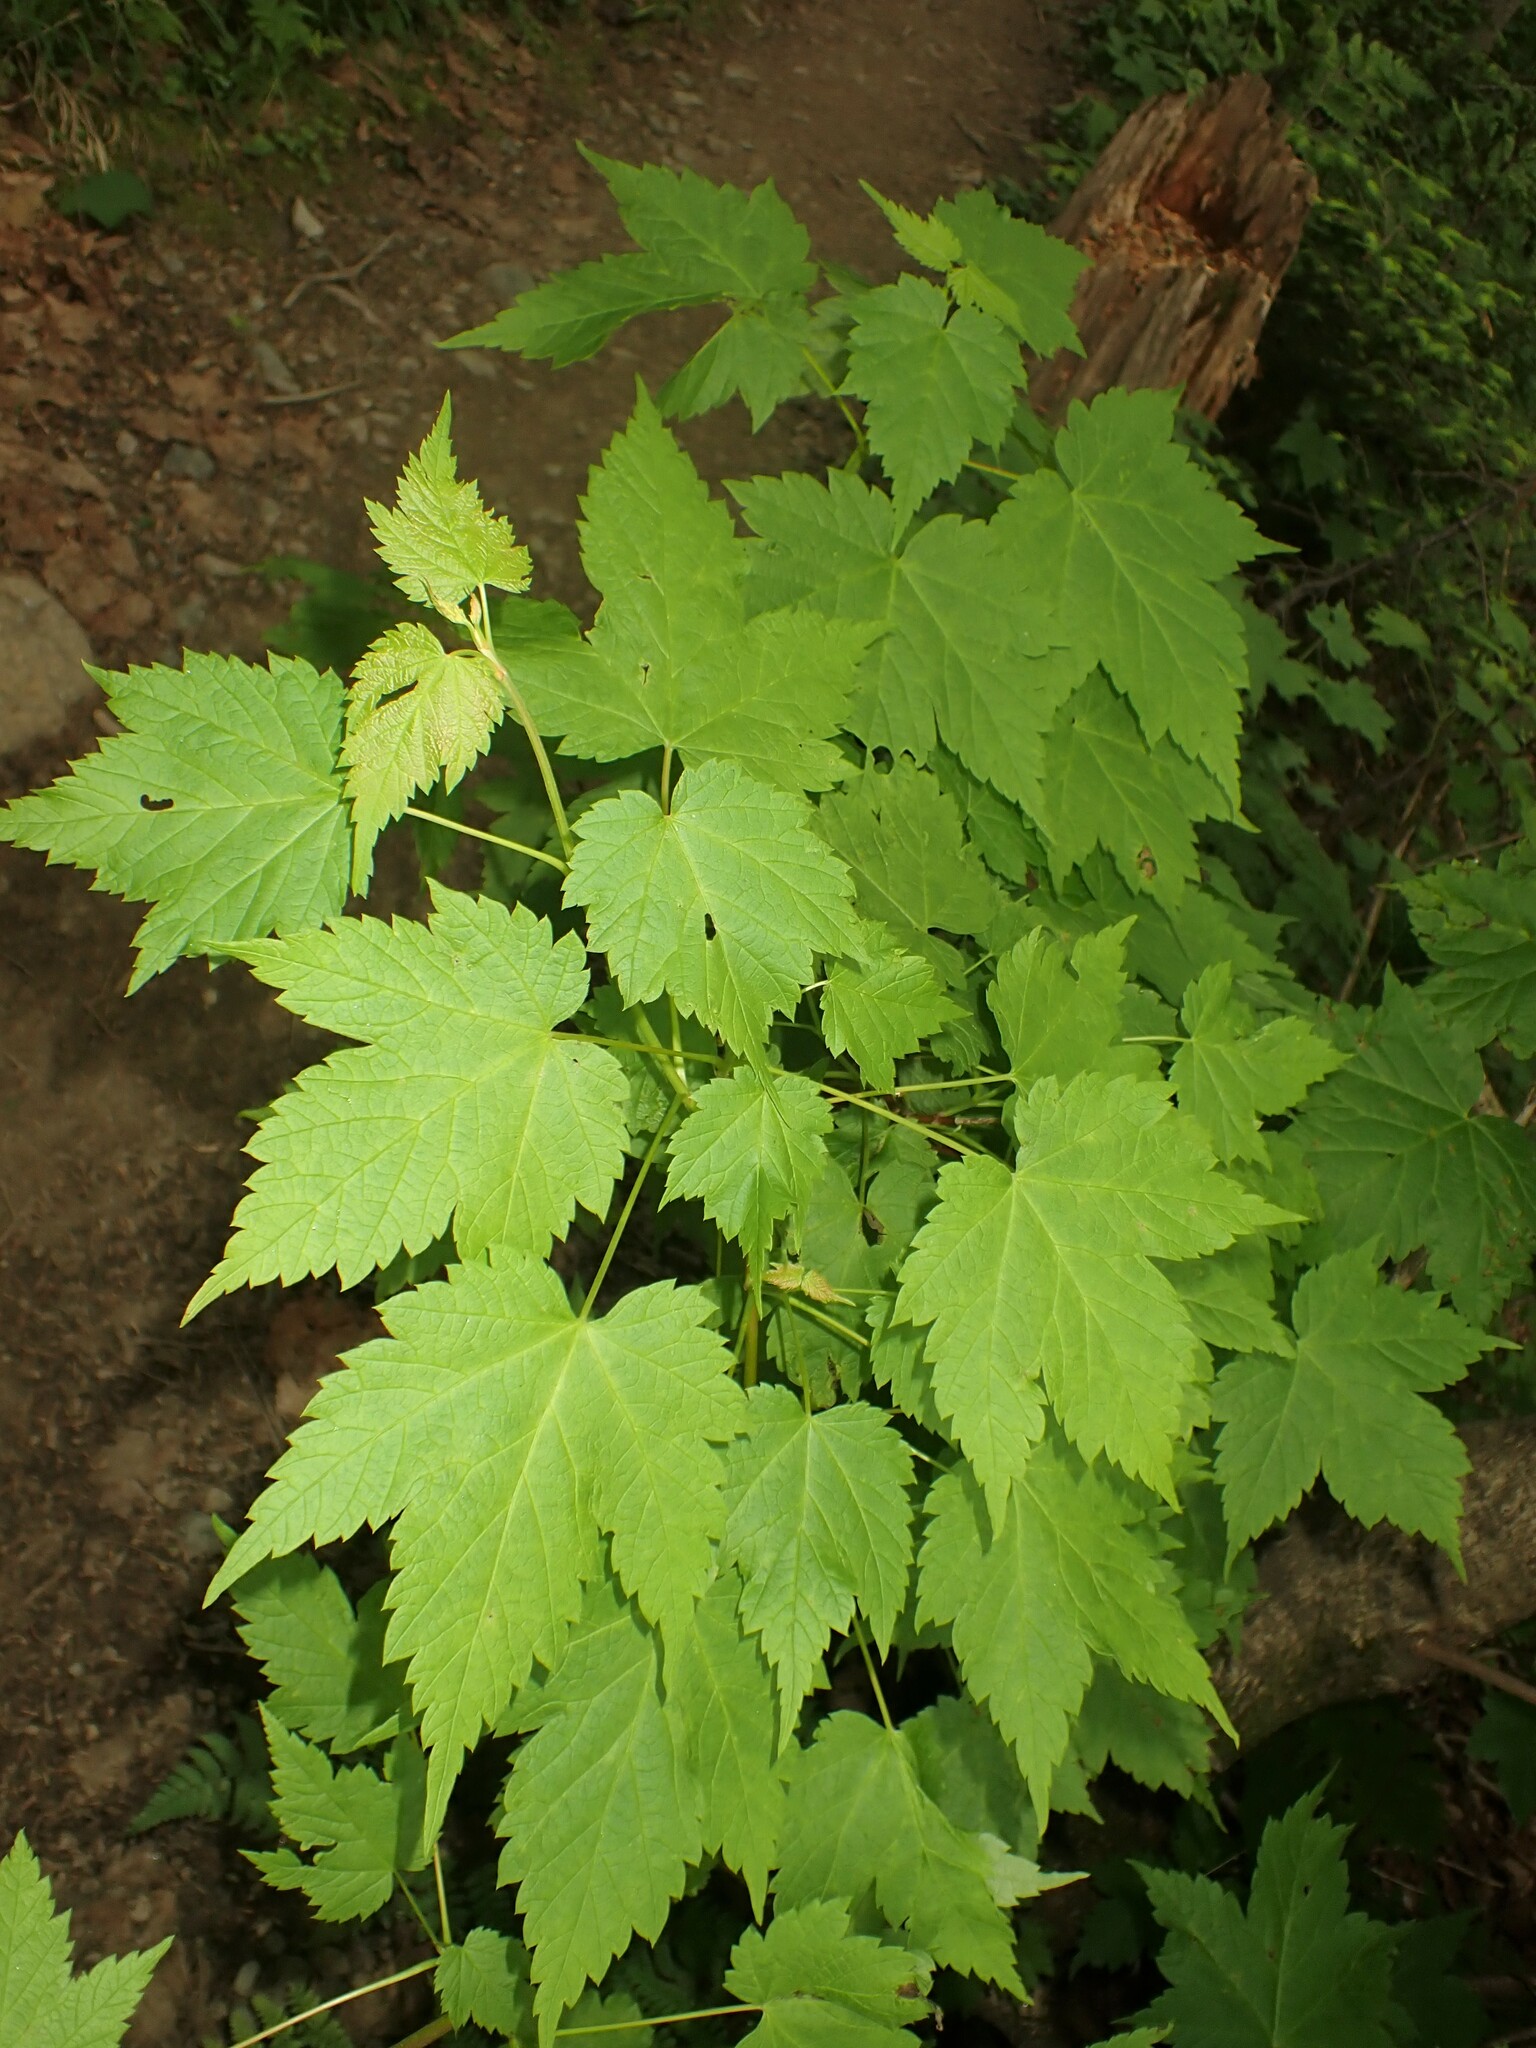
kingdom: Plantae
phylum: Tracheophyta
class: Magnoliopsida
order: Sapindales
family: Sapindaceae
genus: Acer
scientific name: Acer spicatum
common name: Mountain maple
